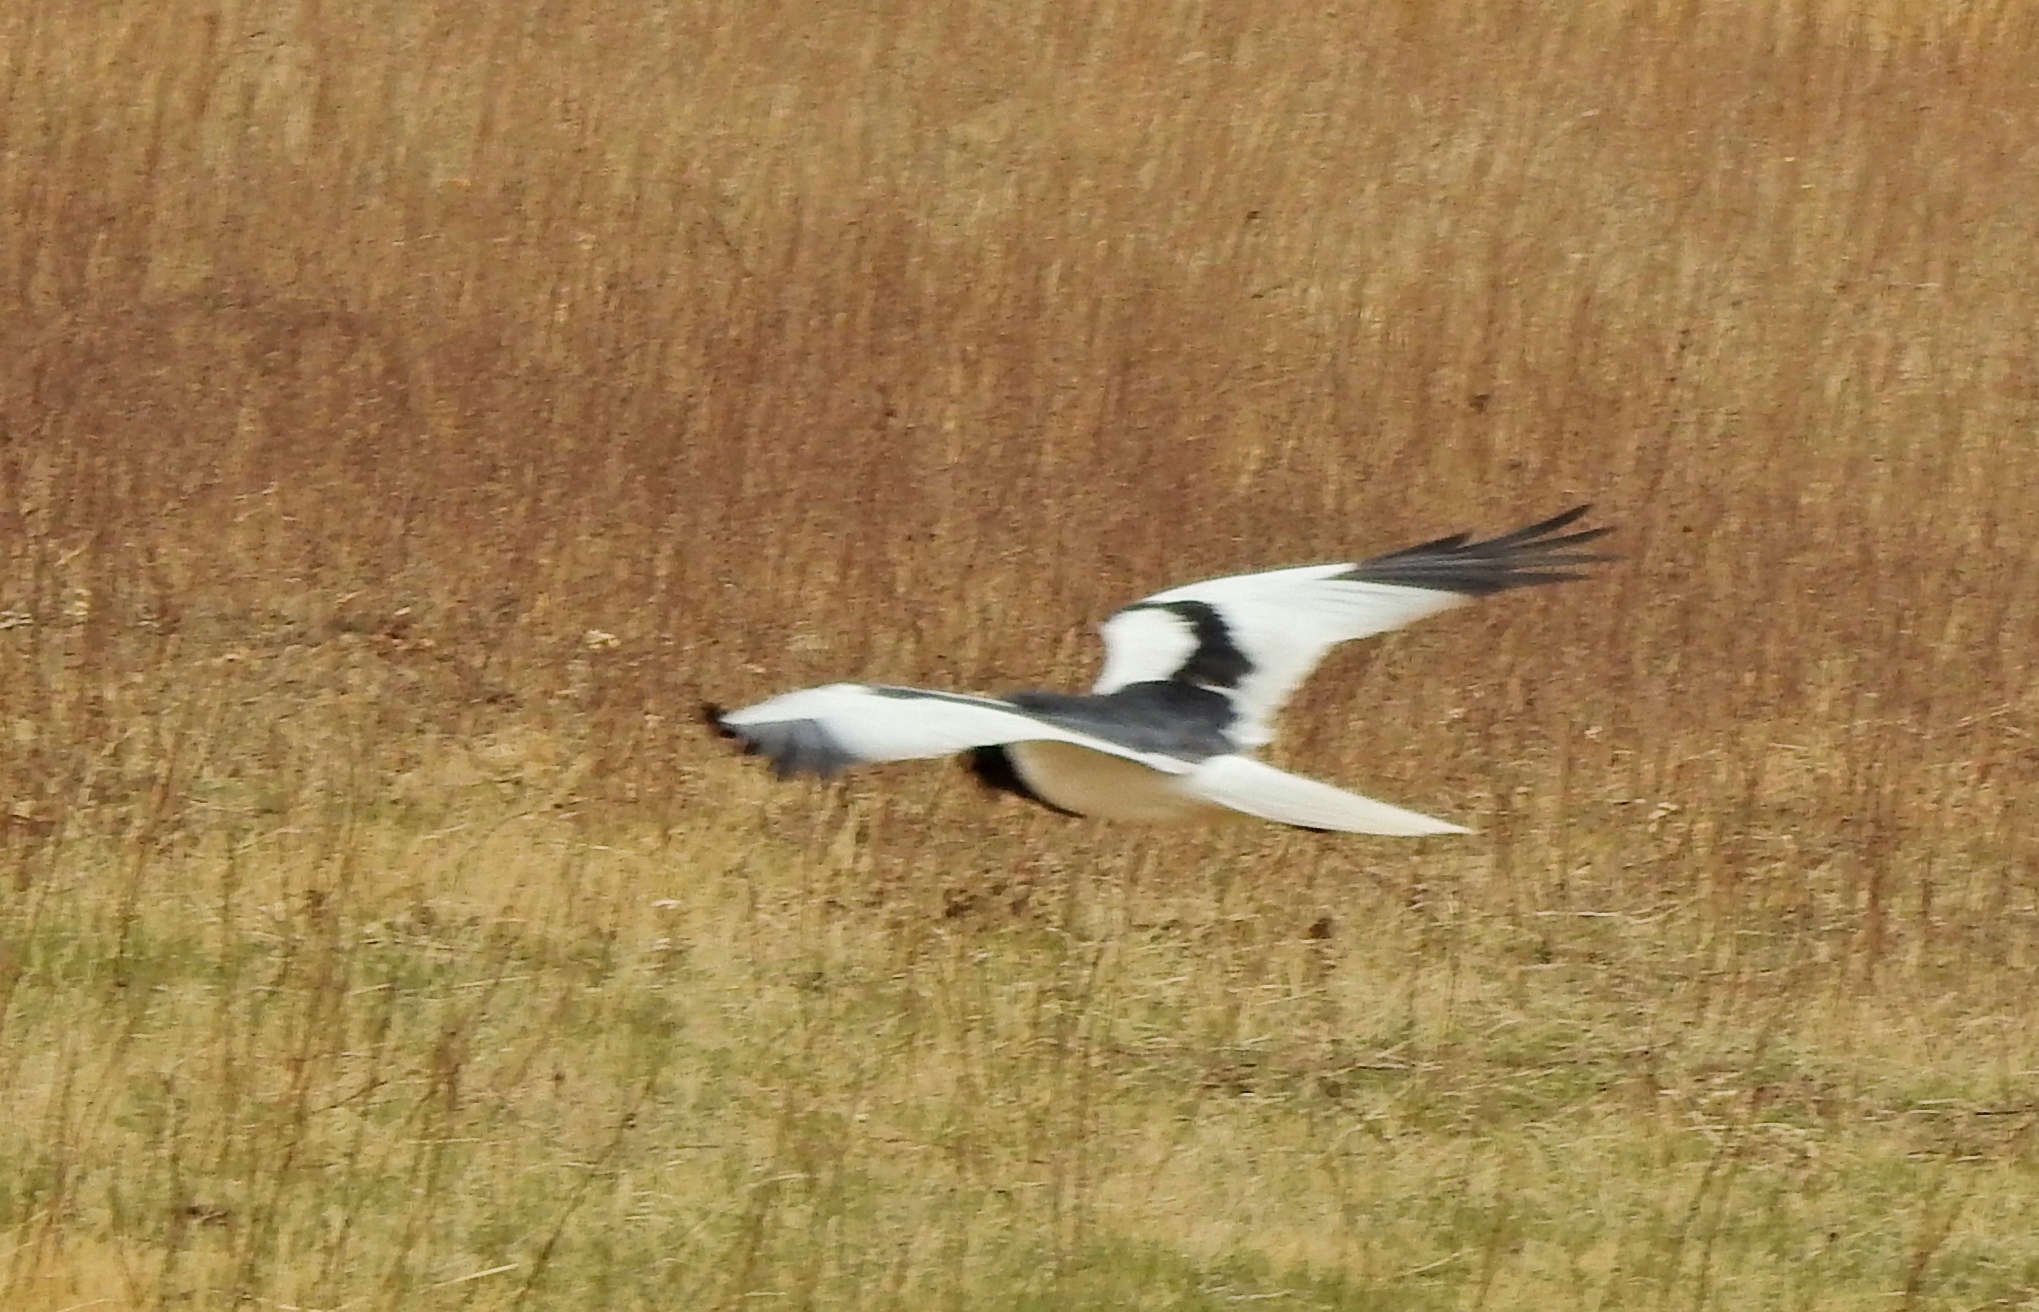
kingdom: Animalia
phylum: Chordata
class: Aves
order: Accipitriformes
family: Accipitridae
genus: Circus
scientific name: Circus melanoleucos
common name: Pied harrier
